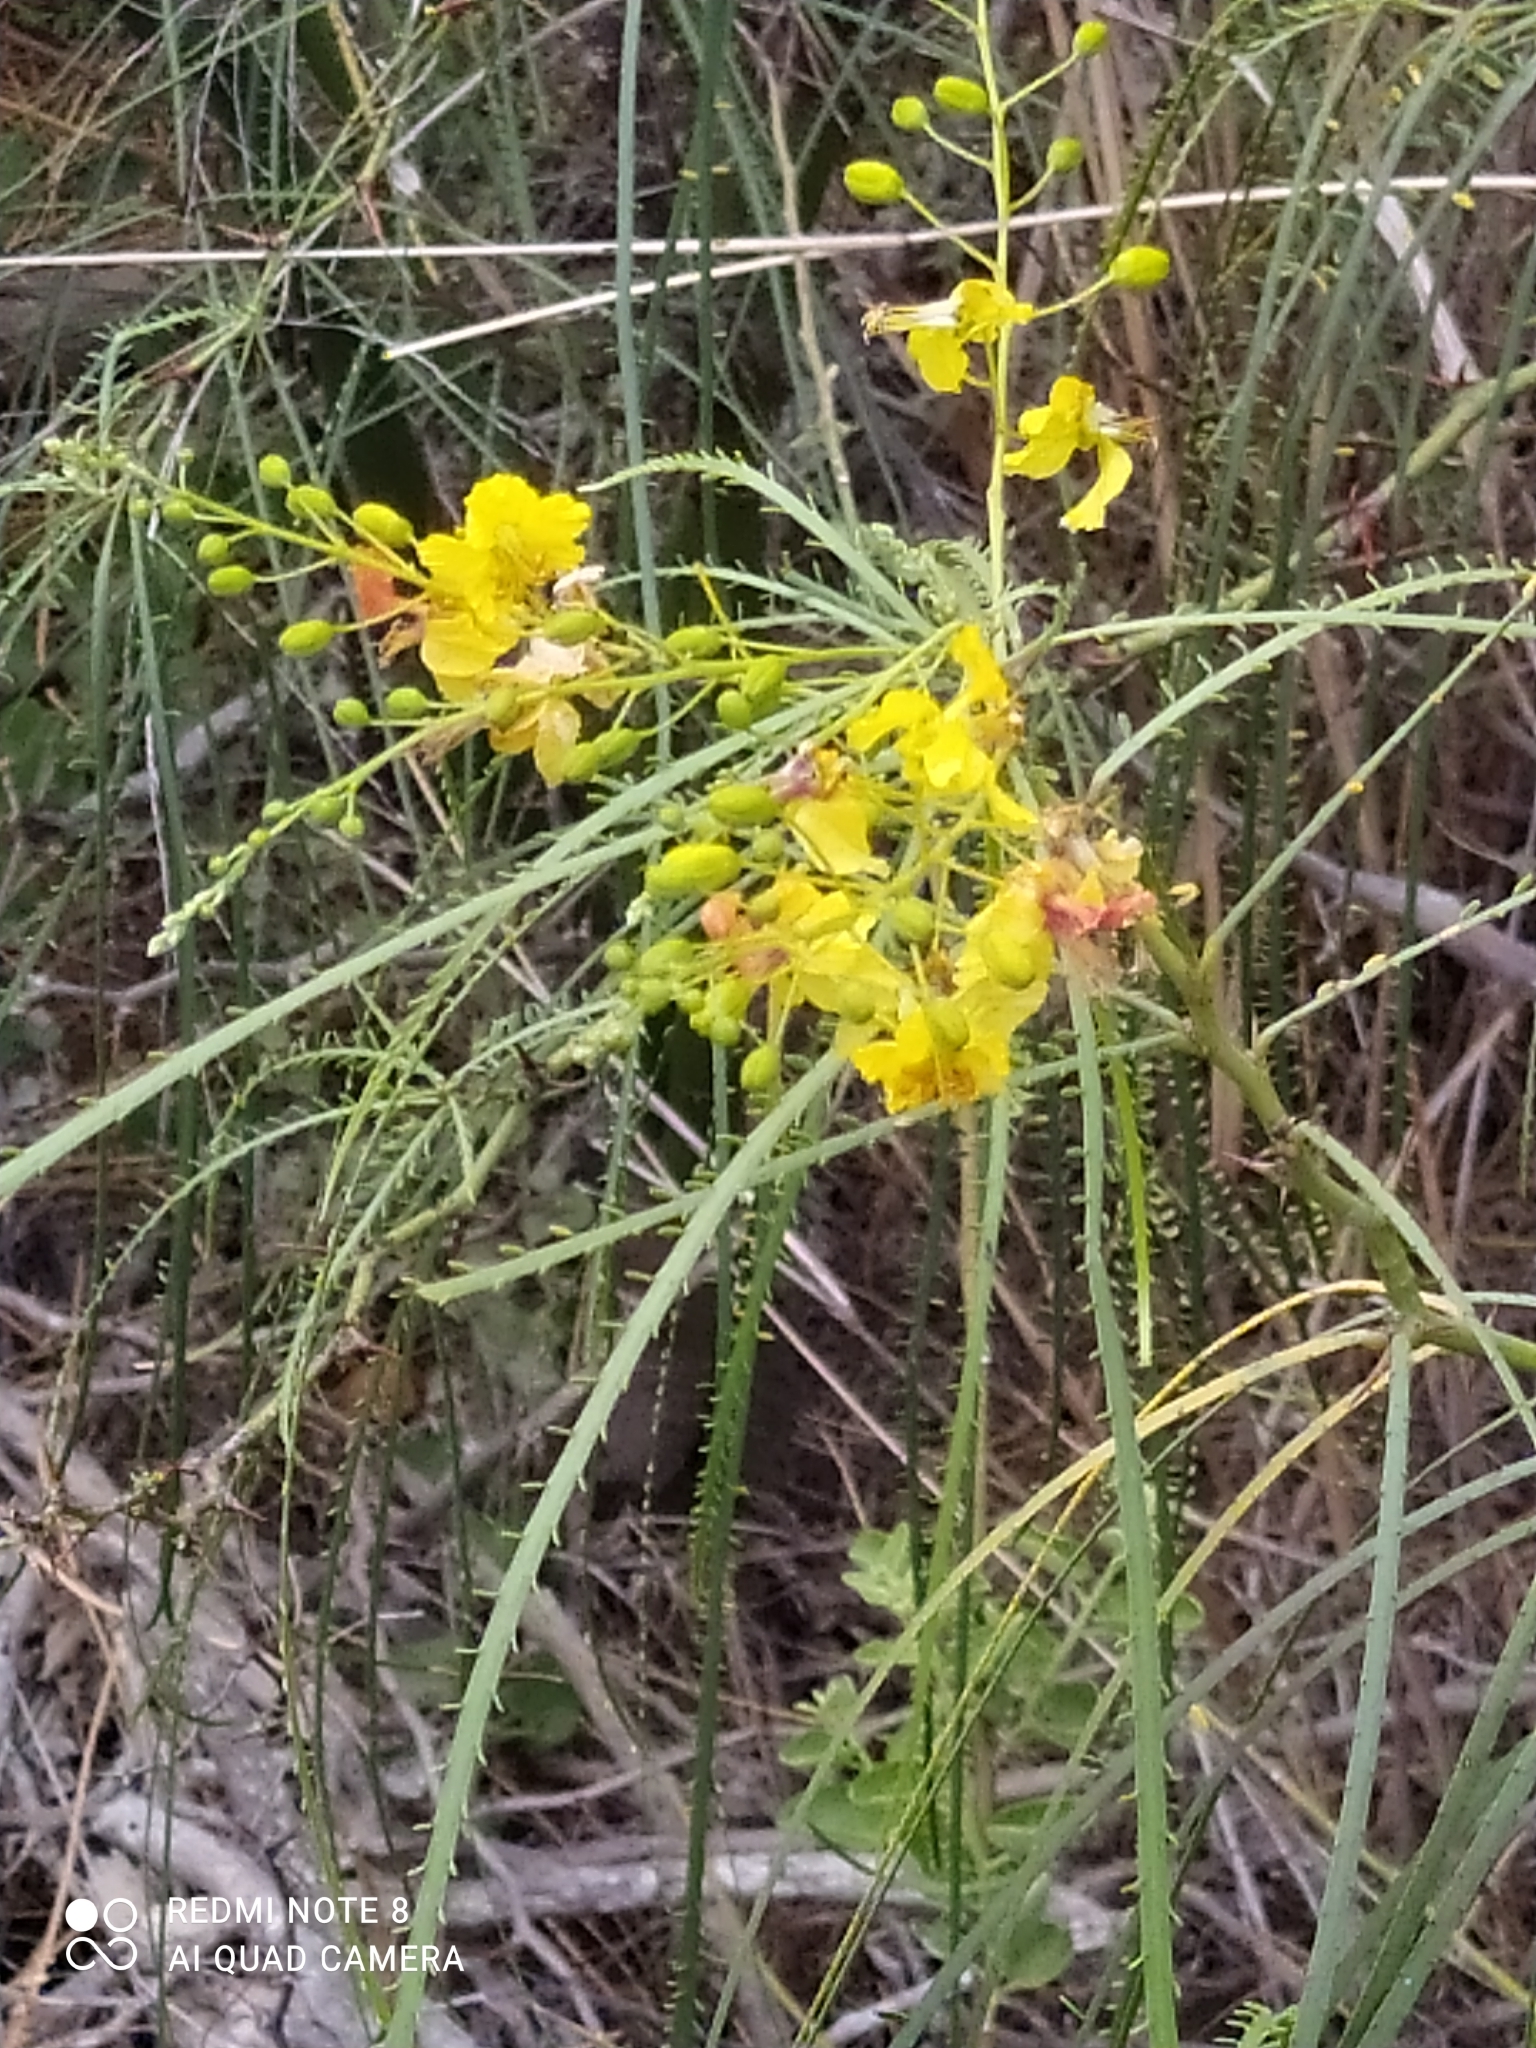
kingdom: Plantae
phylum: Tracheophyta
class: Magnoliopsida
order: Fabales
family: Fabaceae
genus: Parkinsonia
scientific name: Parkinsonia aculeata
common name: Jerusalem thorn
